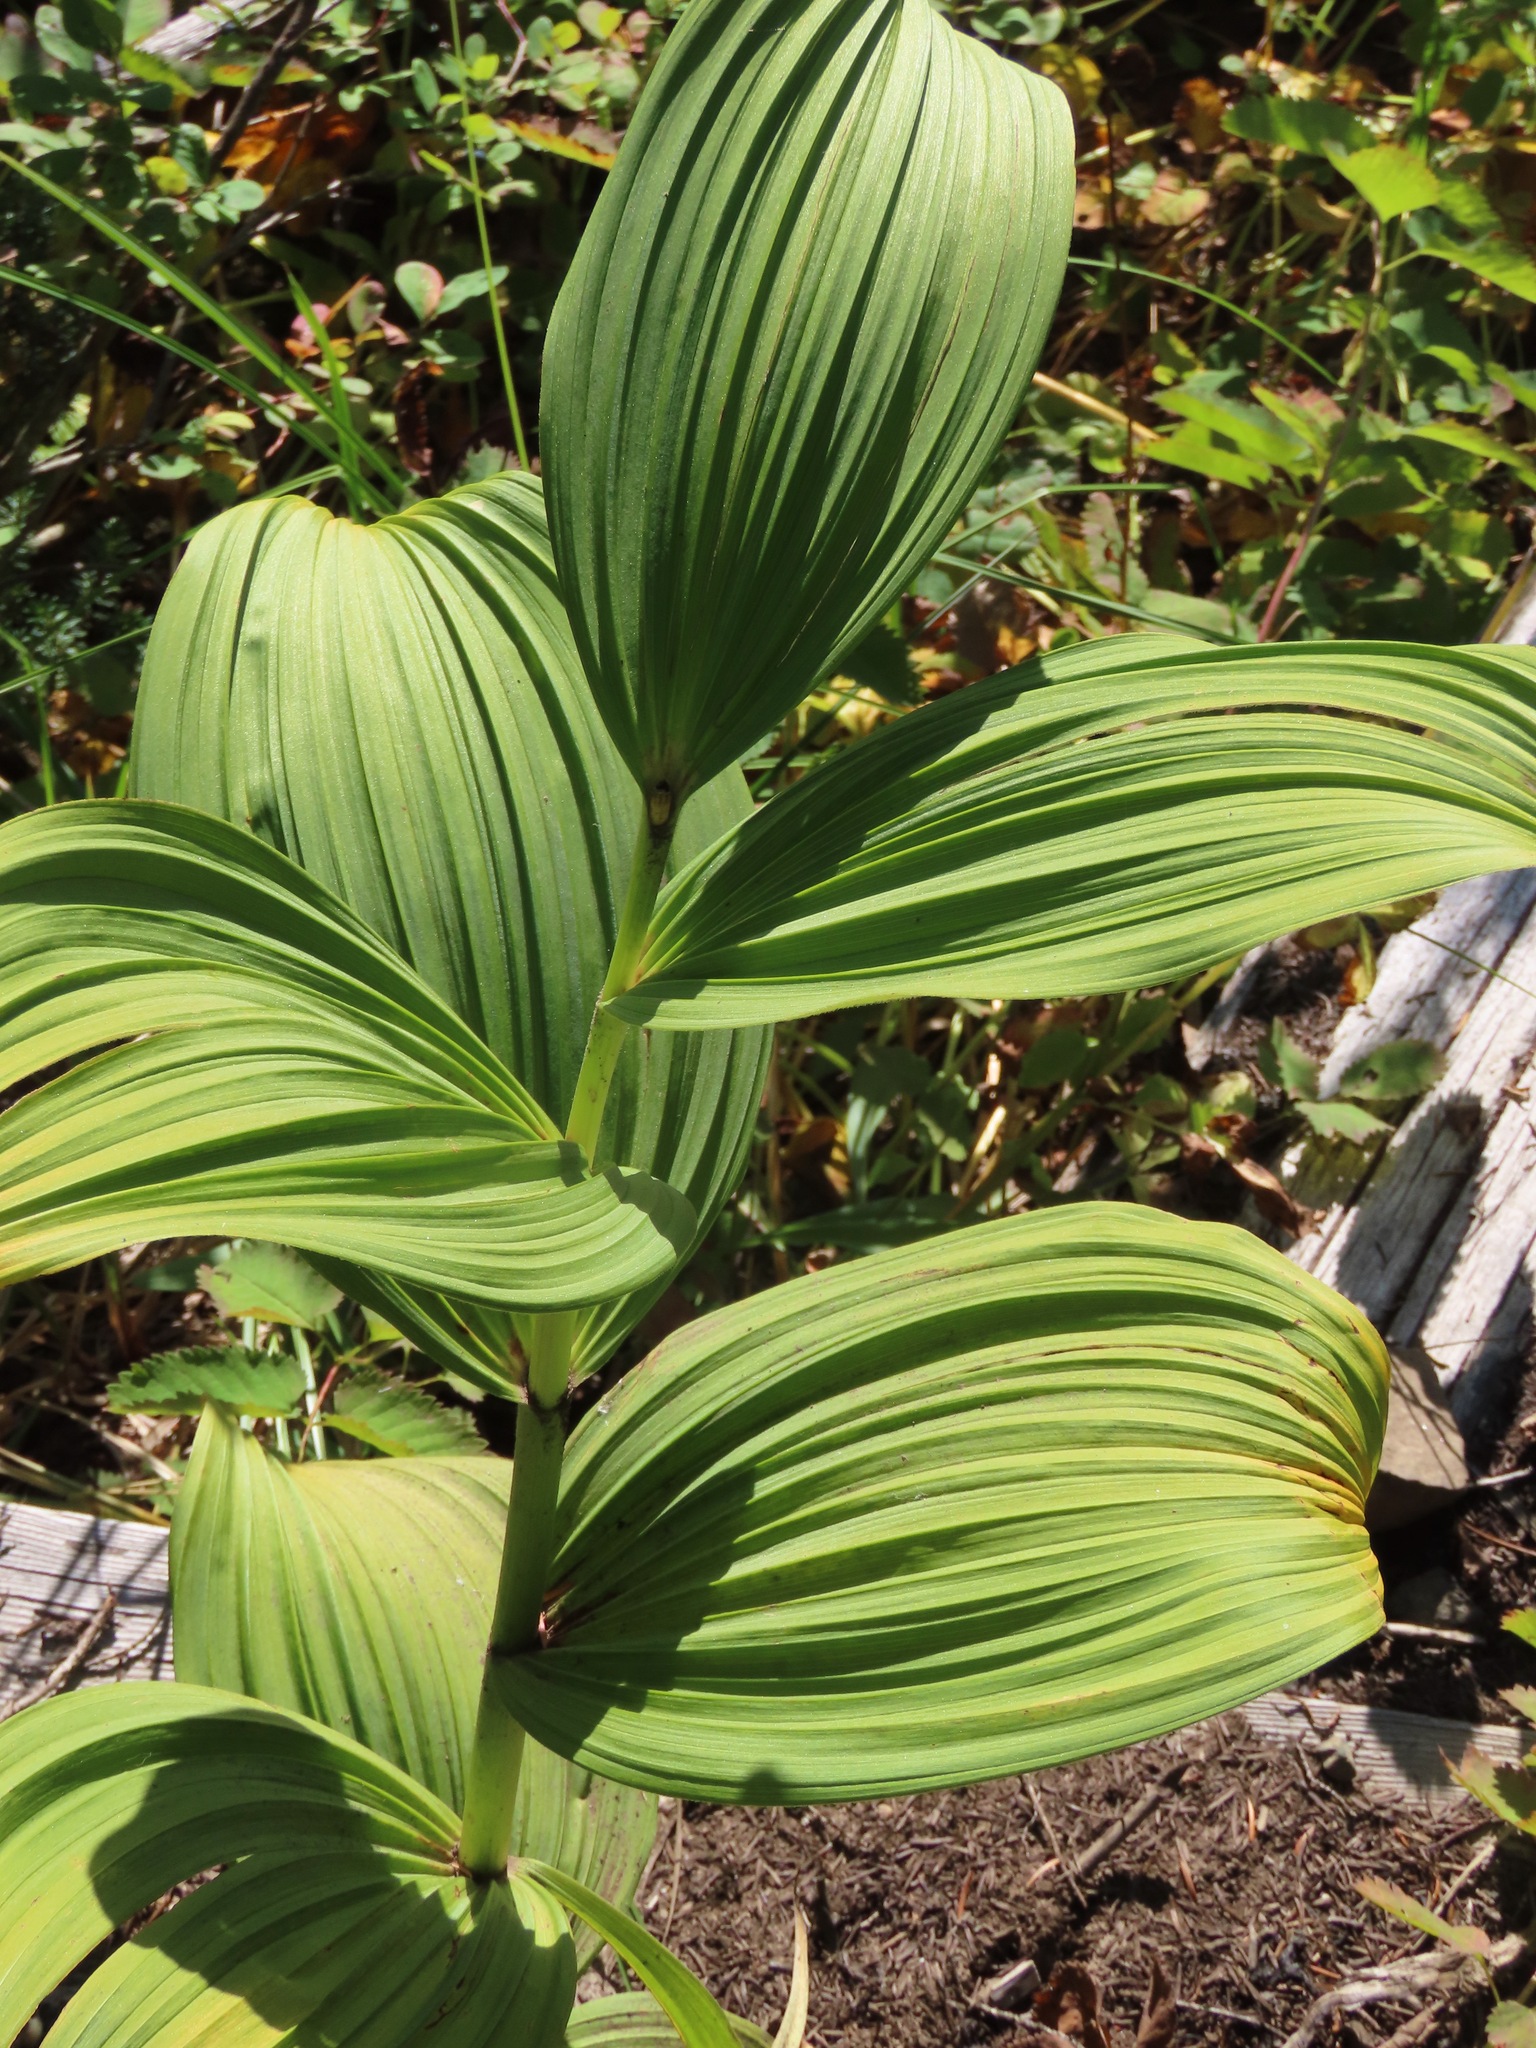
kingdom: Plantae
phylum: Tracheophyta
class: Liliopsida
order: Liliales
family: Melanthiaceae
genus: Veratrum
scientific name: Veratrum viride
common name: American false hellebore
